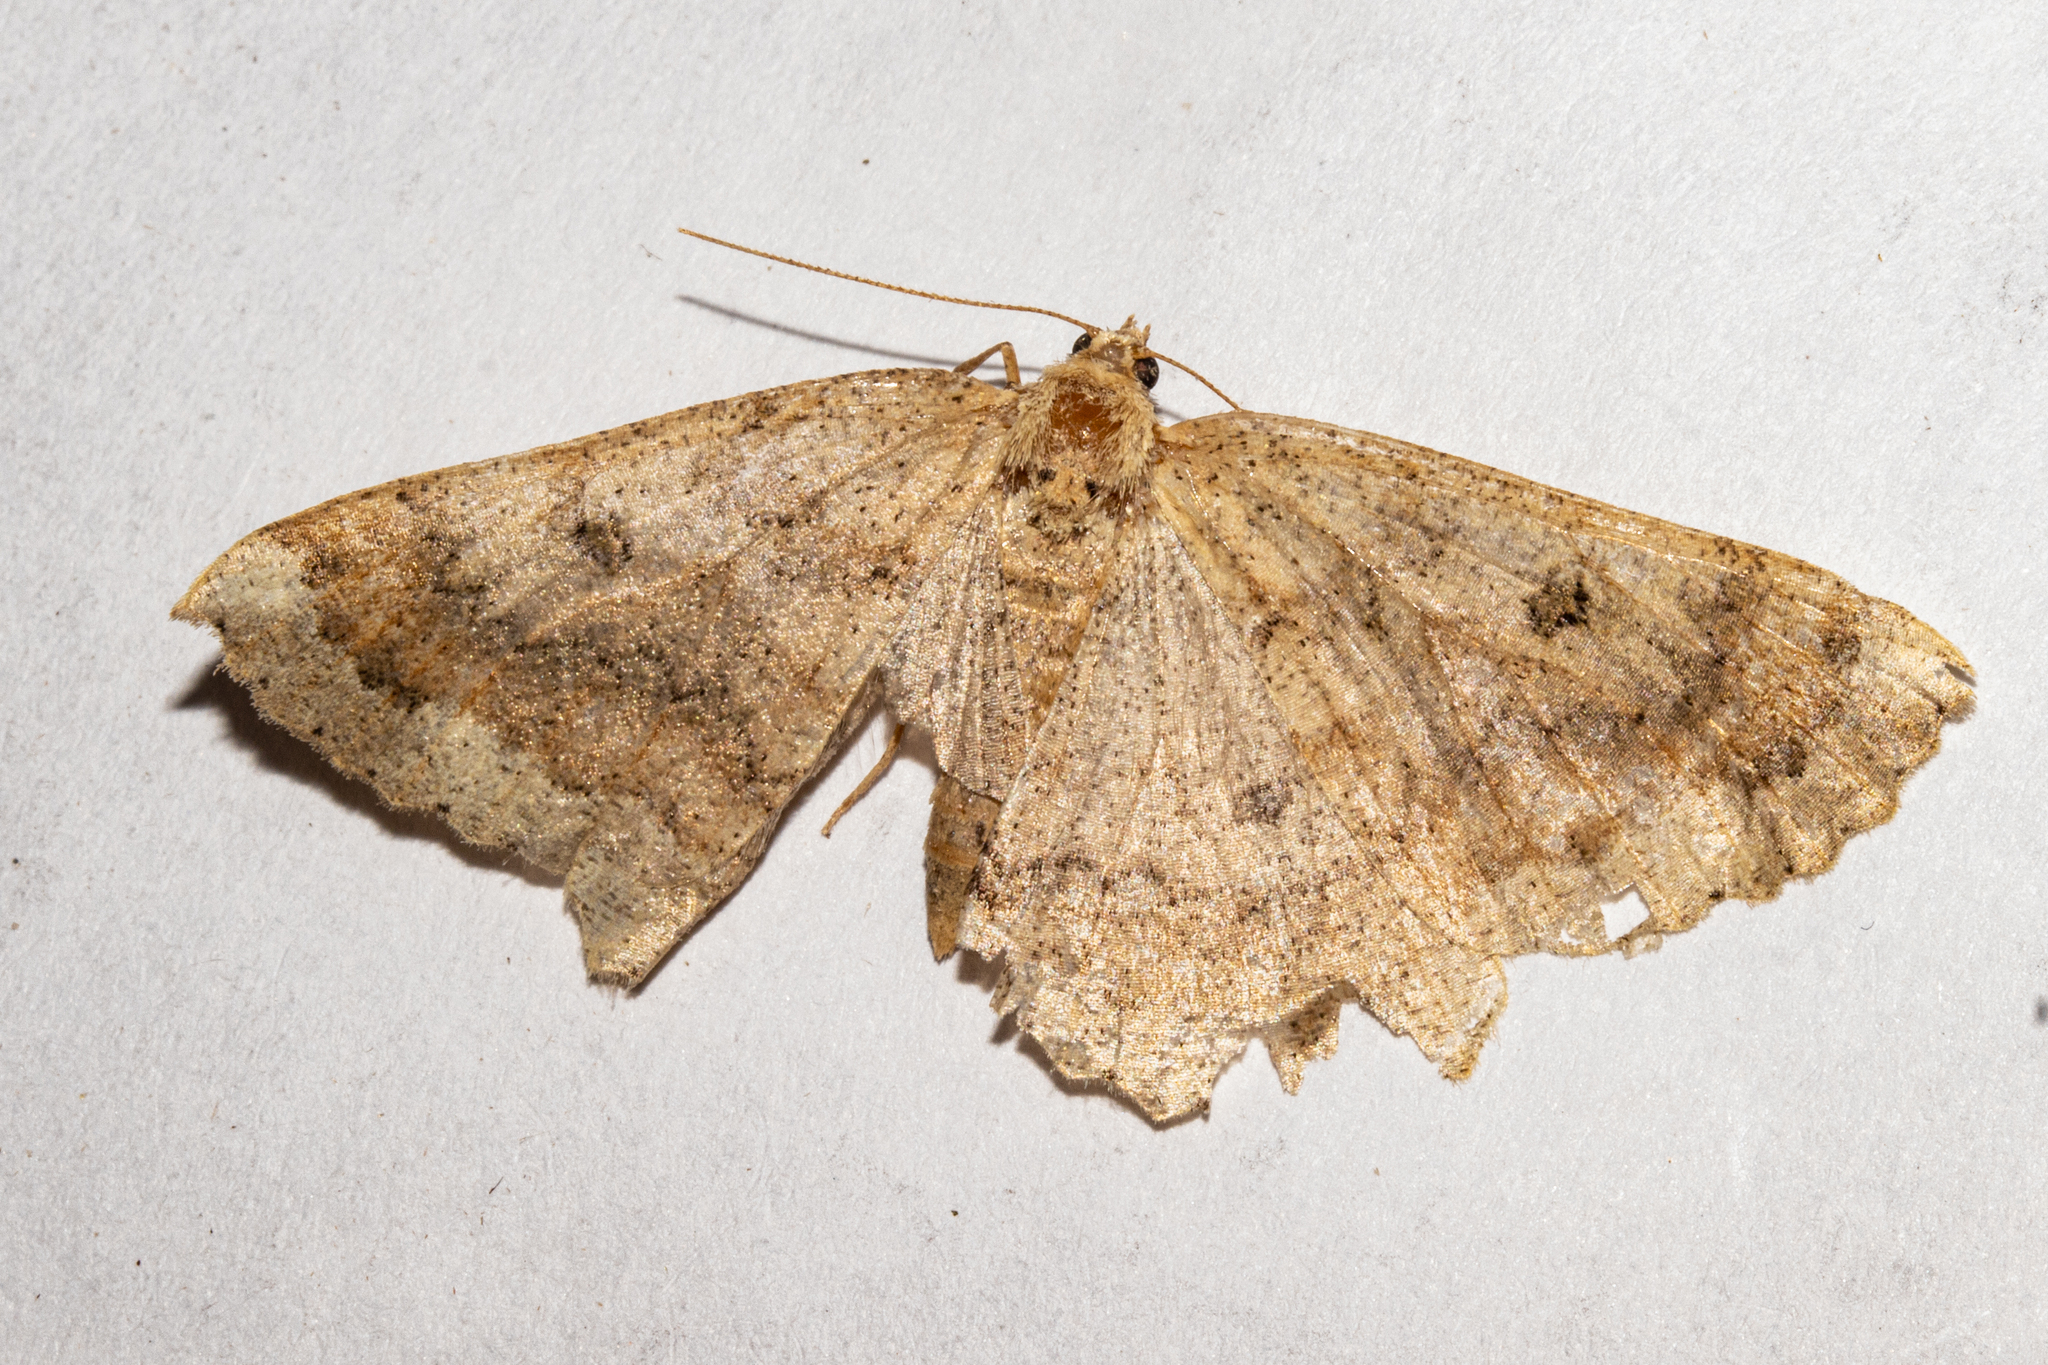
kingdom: Animalia
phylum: Arthropoda
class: Insecta
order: Lepidoptera
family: Geometridae
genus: Cleora
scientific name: Cleora scriptaria
